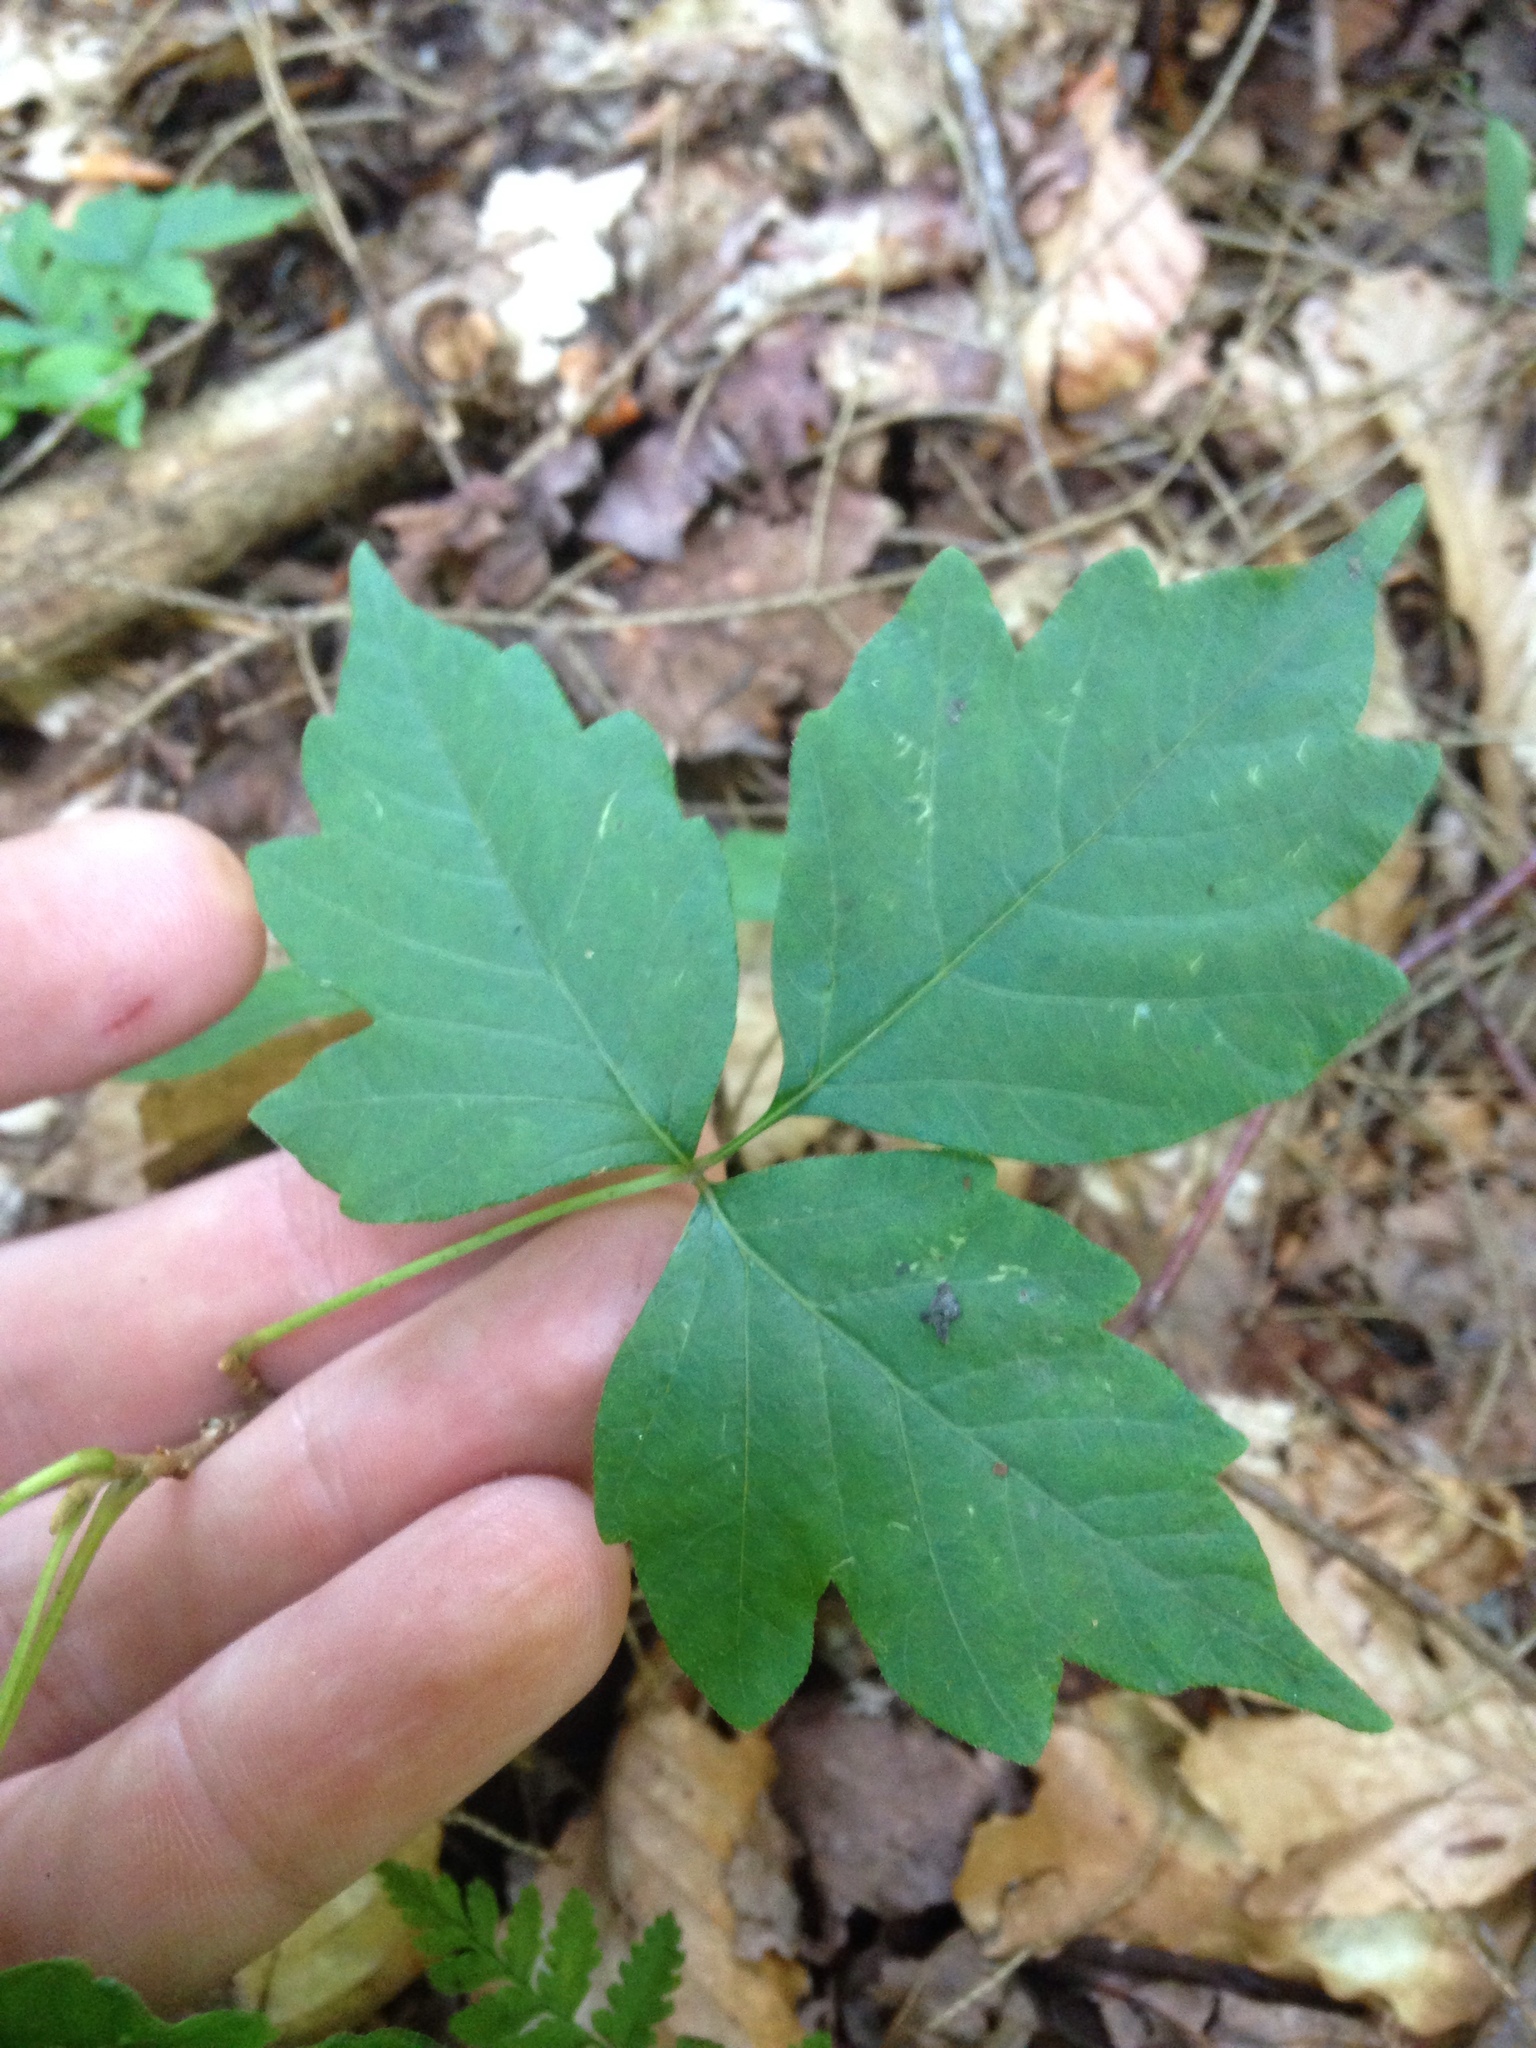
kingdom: Plantae
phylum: Tracheophyta
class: Magnoliopsida
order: Sapindales
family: Anacardiaceae
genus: Toxicodendron
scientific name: Toxicodendron radicans
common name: Poison ivy
